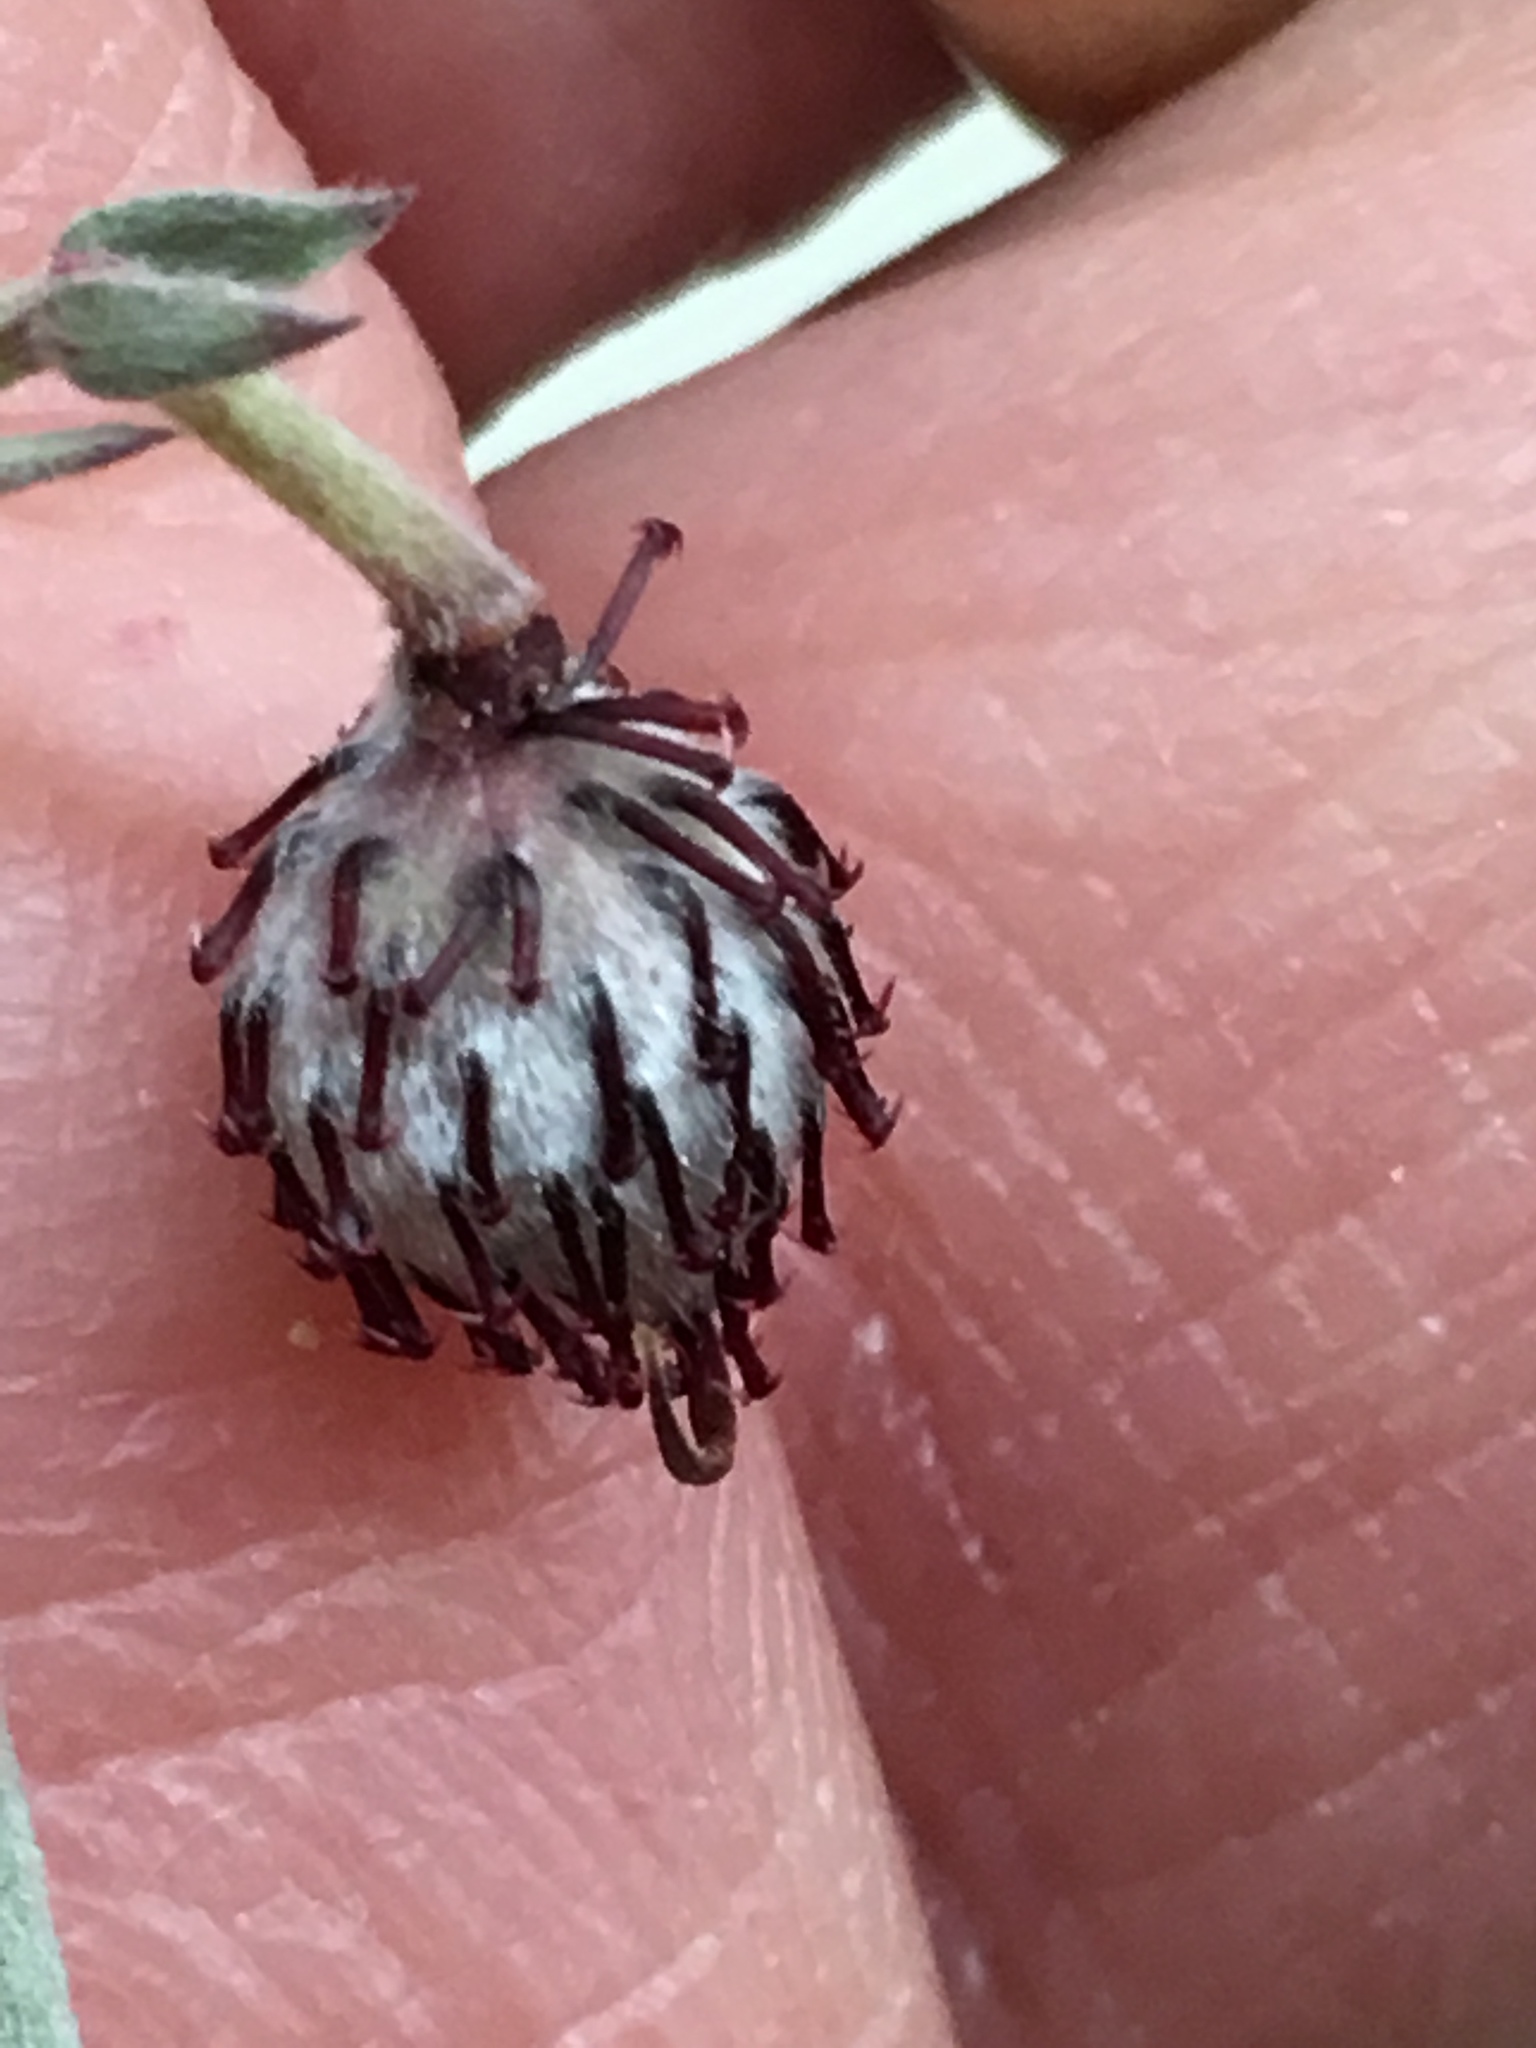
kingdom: Plantae
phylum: Tracheophyta
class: Magnoliopsida
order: Zygophyllales
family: Krameriaceae
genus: Krameria
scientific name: Krameria bicolor
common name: White ratany
